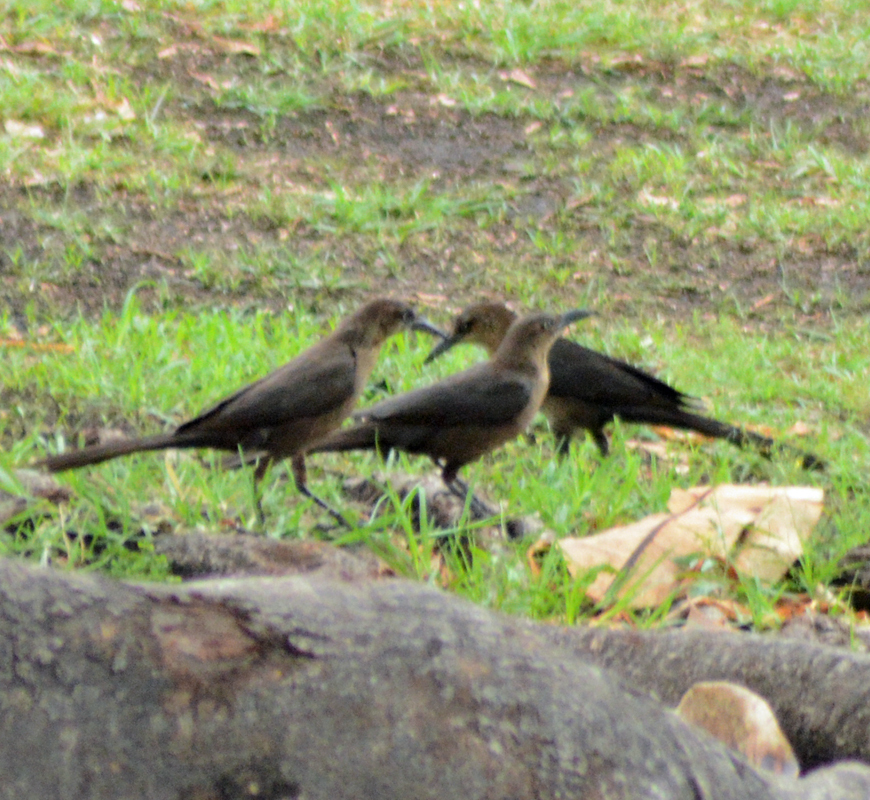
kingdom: Animalia
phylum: Chordata
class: Aves
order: Passeriformes
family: Icteridae
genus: Quiscalus
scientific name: Quiscalus mexicanus
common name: Great-tailed grackle
